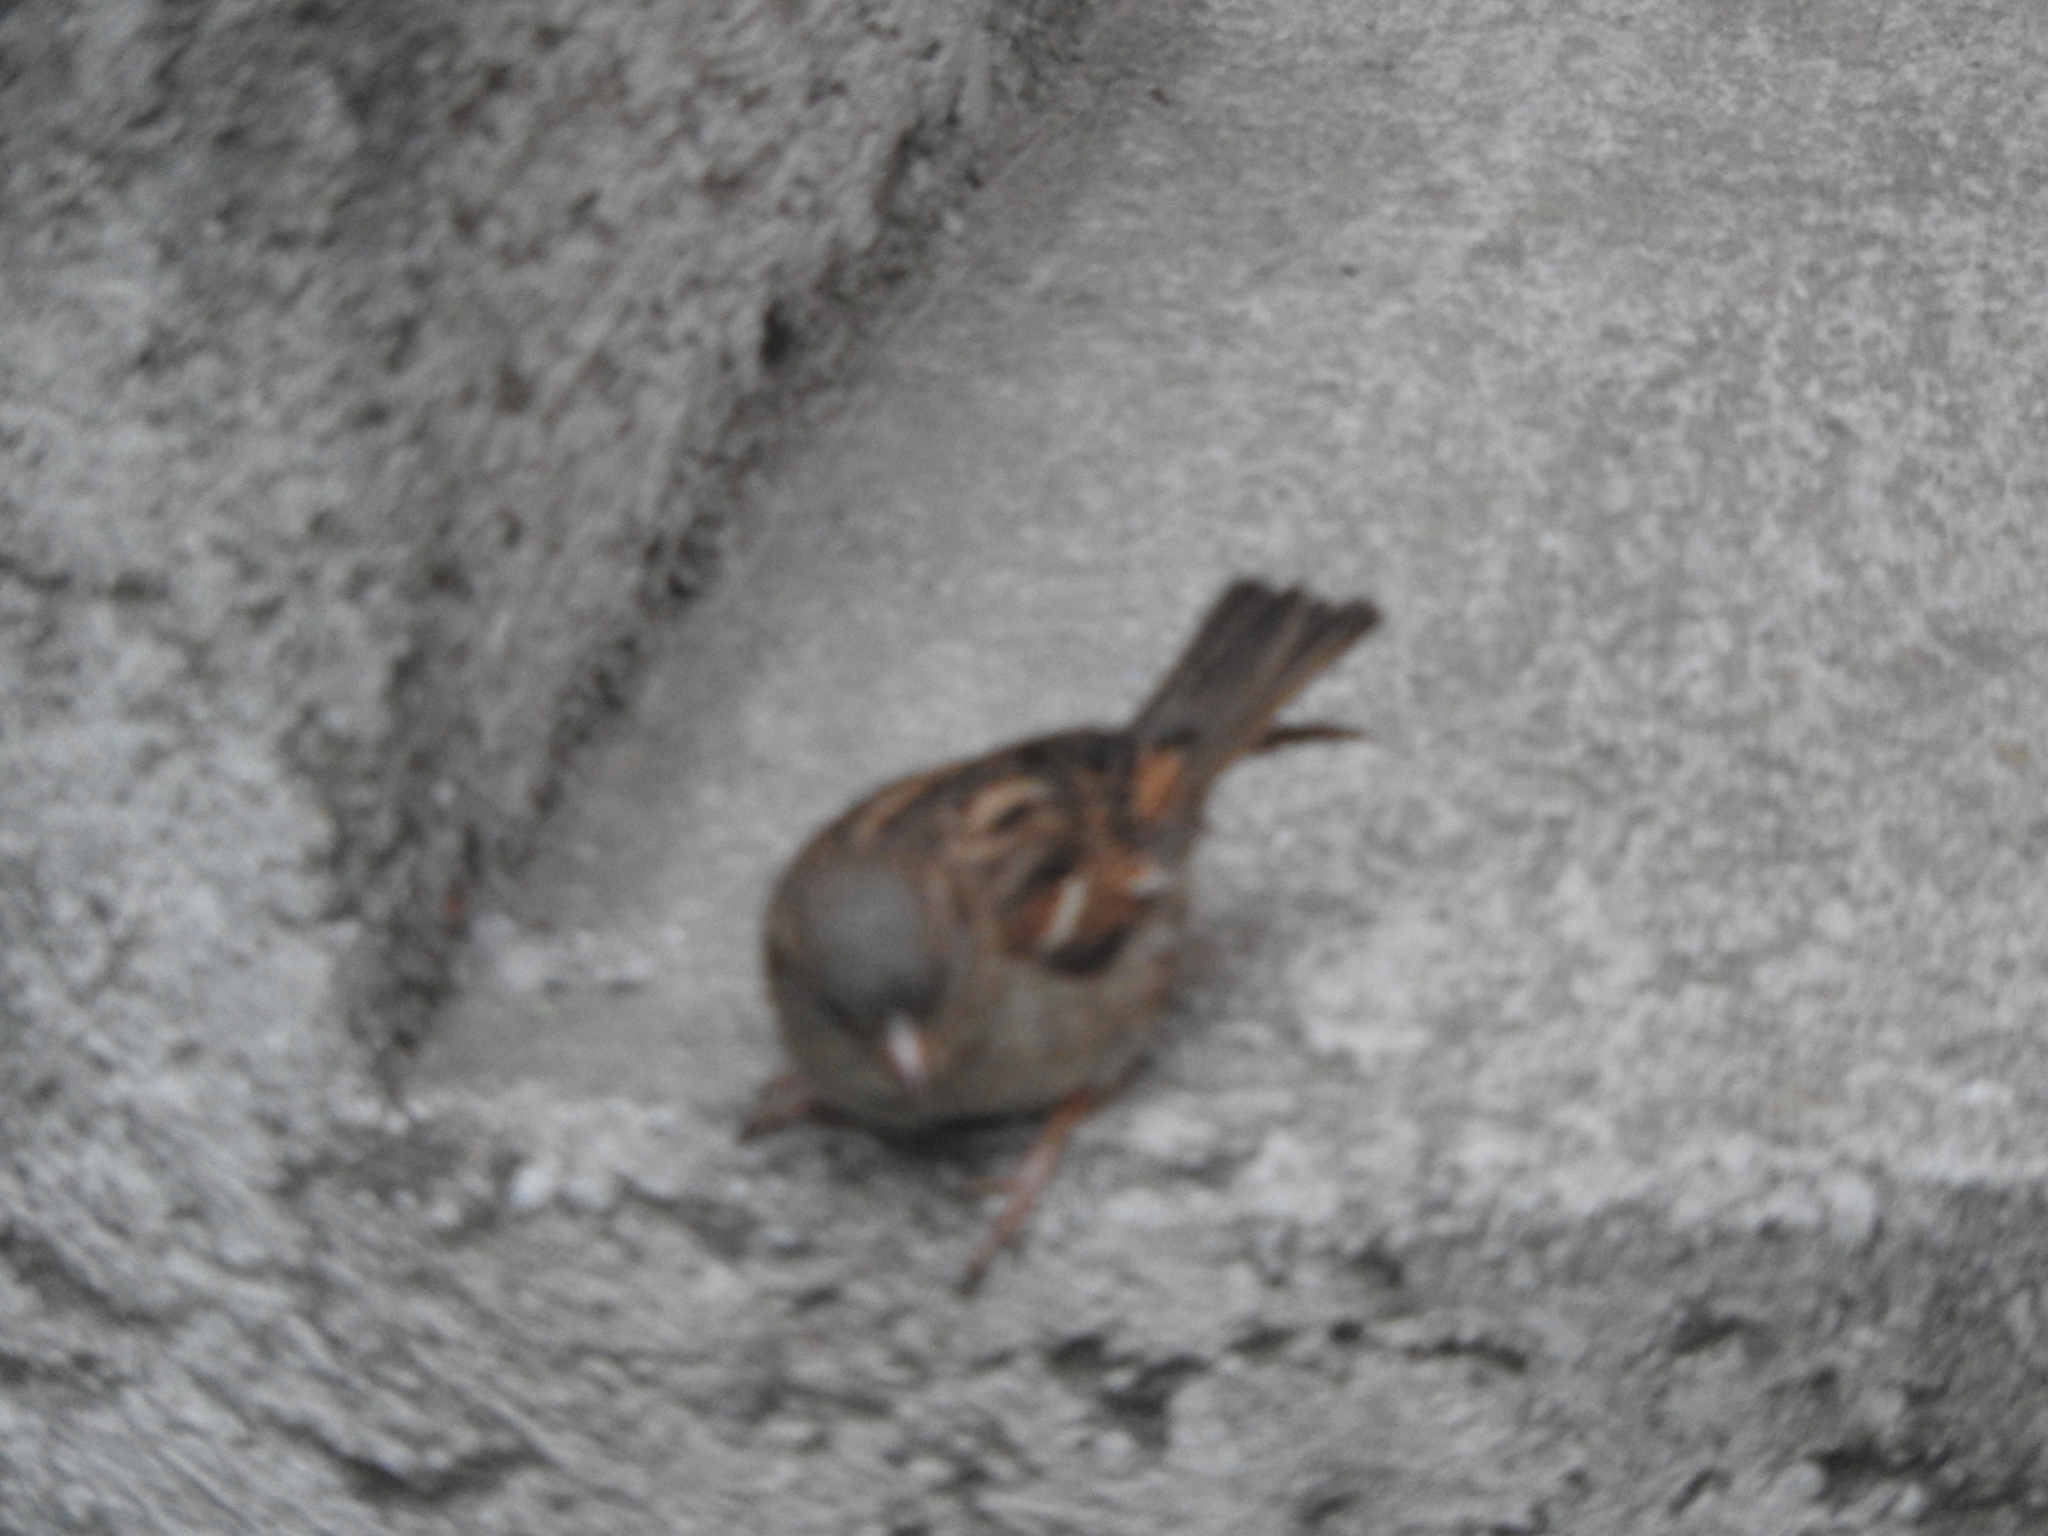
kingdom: Animalia
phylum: Chordata
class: Aves
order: Passeriformes
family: Passeridae
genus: Passer
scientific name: Passer domesticus
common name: House sparrow
